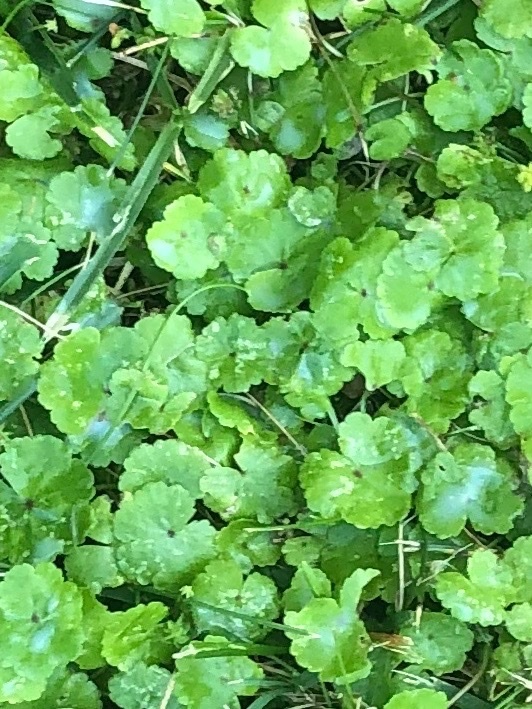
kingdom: Plantae
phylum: Tracheophyta
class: Magnoliopsida
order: Apiales
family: Araliaceae
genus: Hydrocotyle
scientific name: Hydrocotyle sibthorpioides
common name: Lawn marshpennywort
